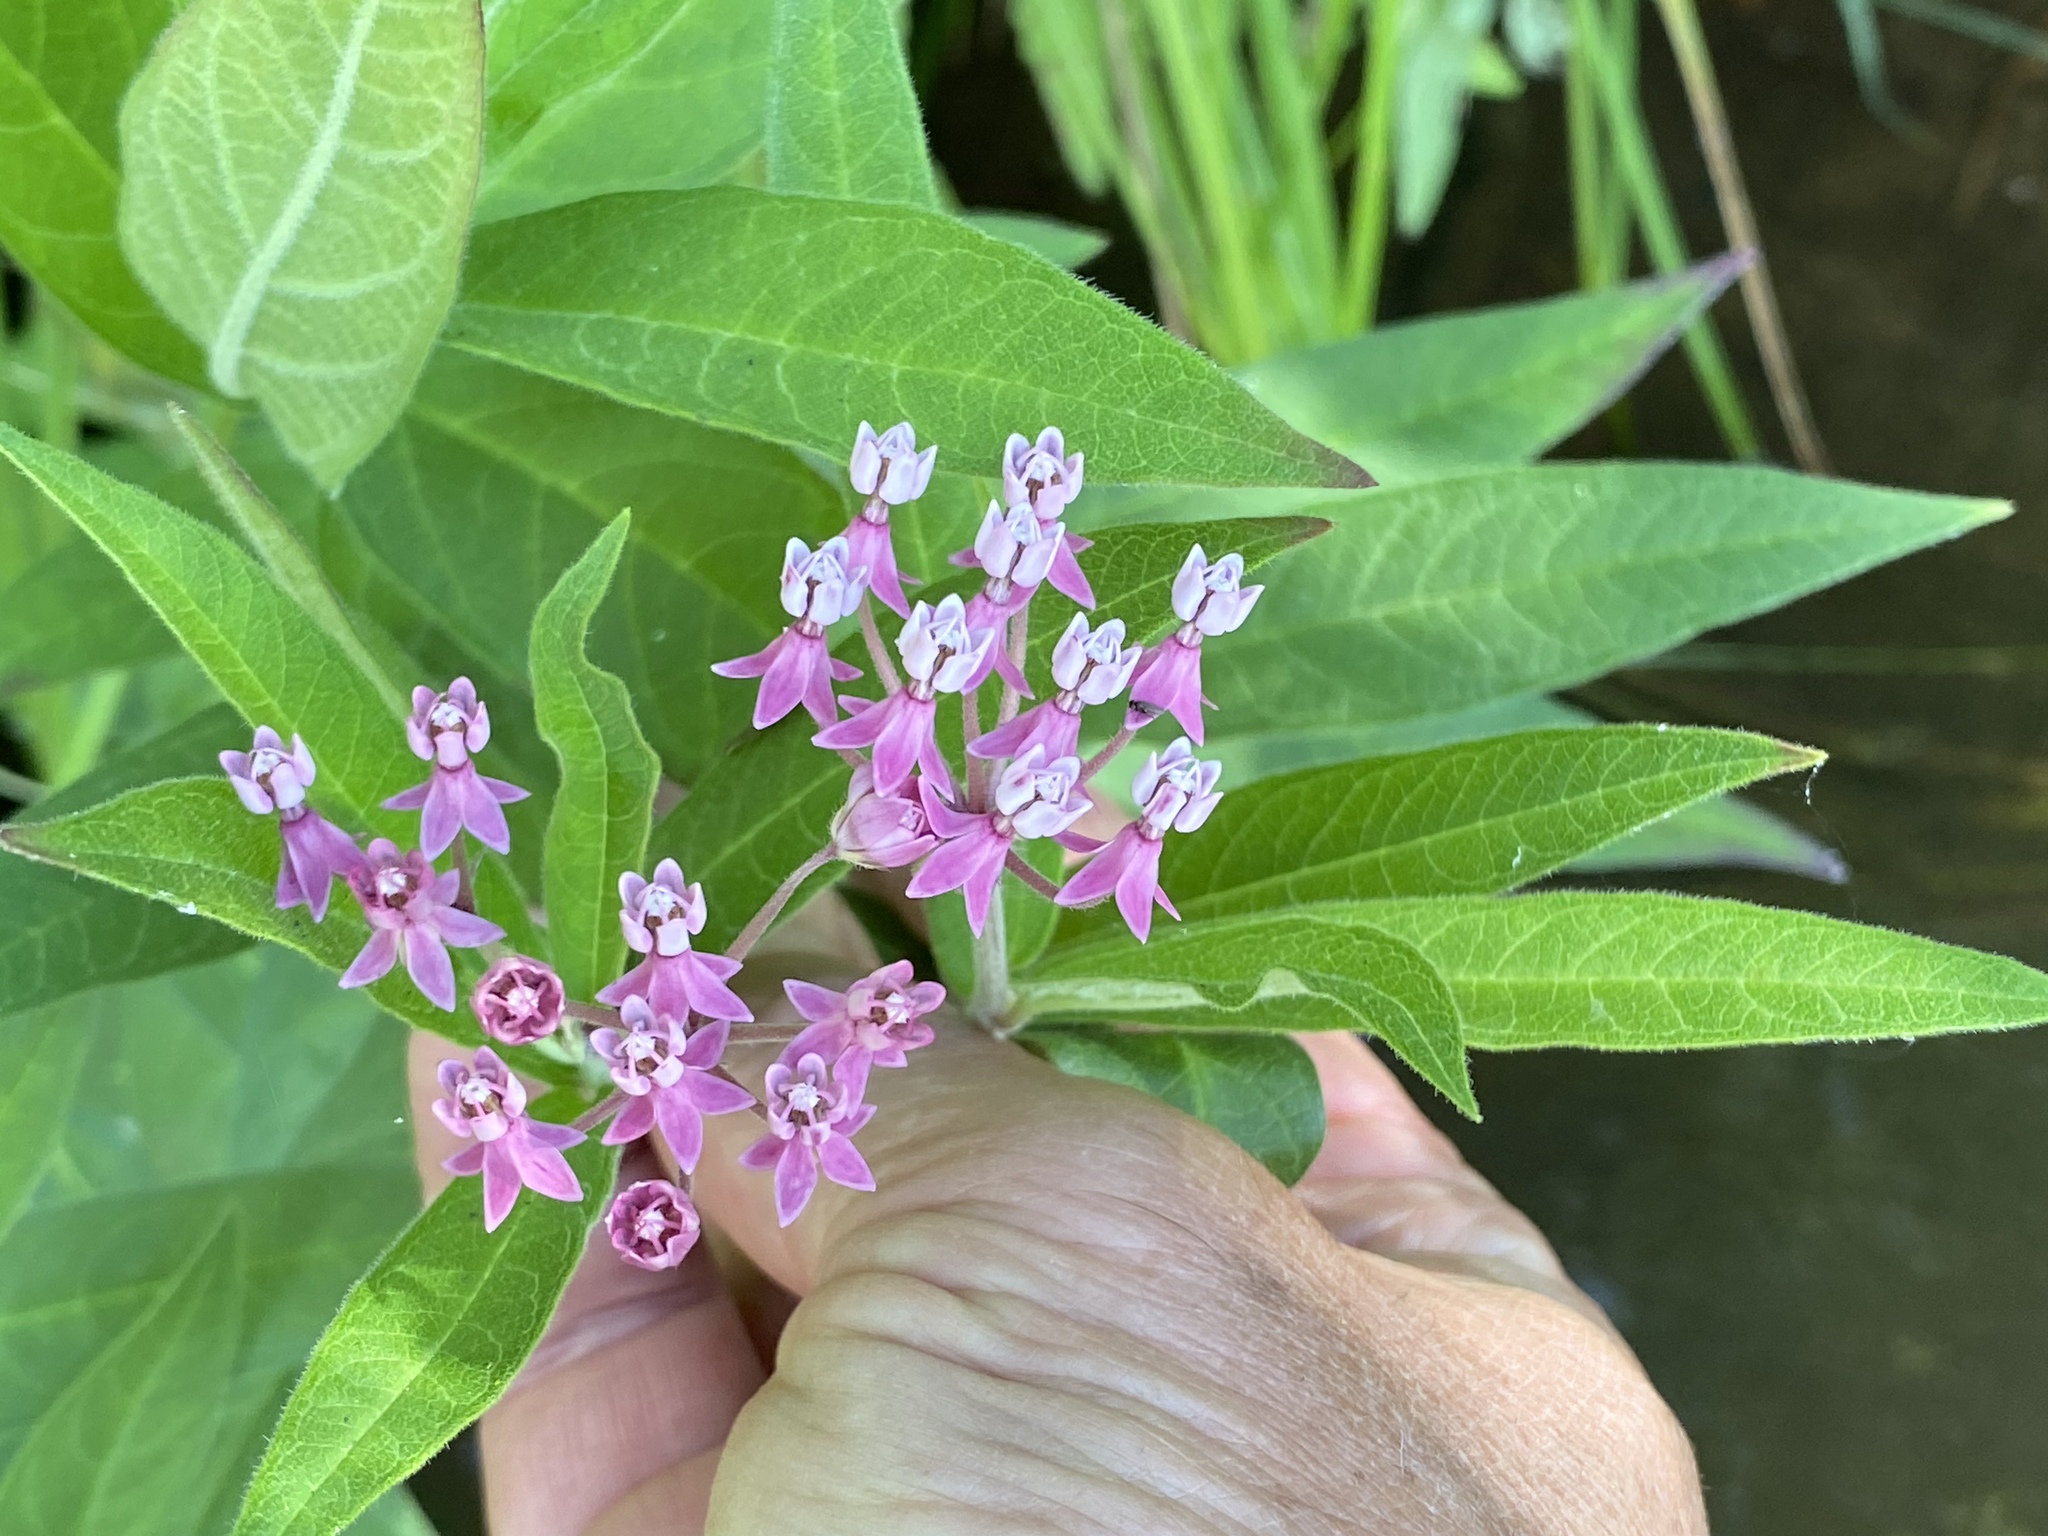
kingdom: Plantae
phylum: Tracheophyta
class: Magnoliopsida
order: Gentianales
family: Apocynaceae
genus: Asclepias
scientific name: Asclepias incarnata
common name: Swamp milkweed
